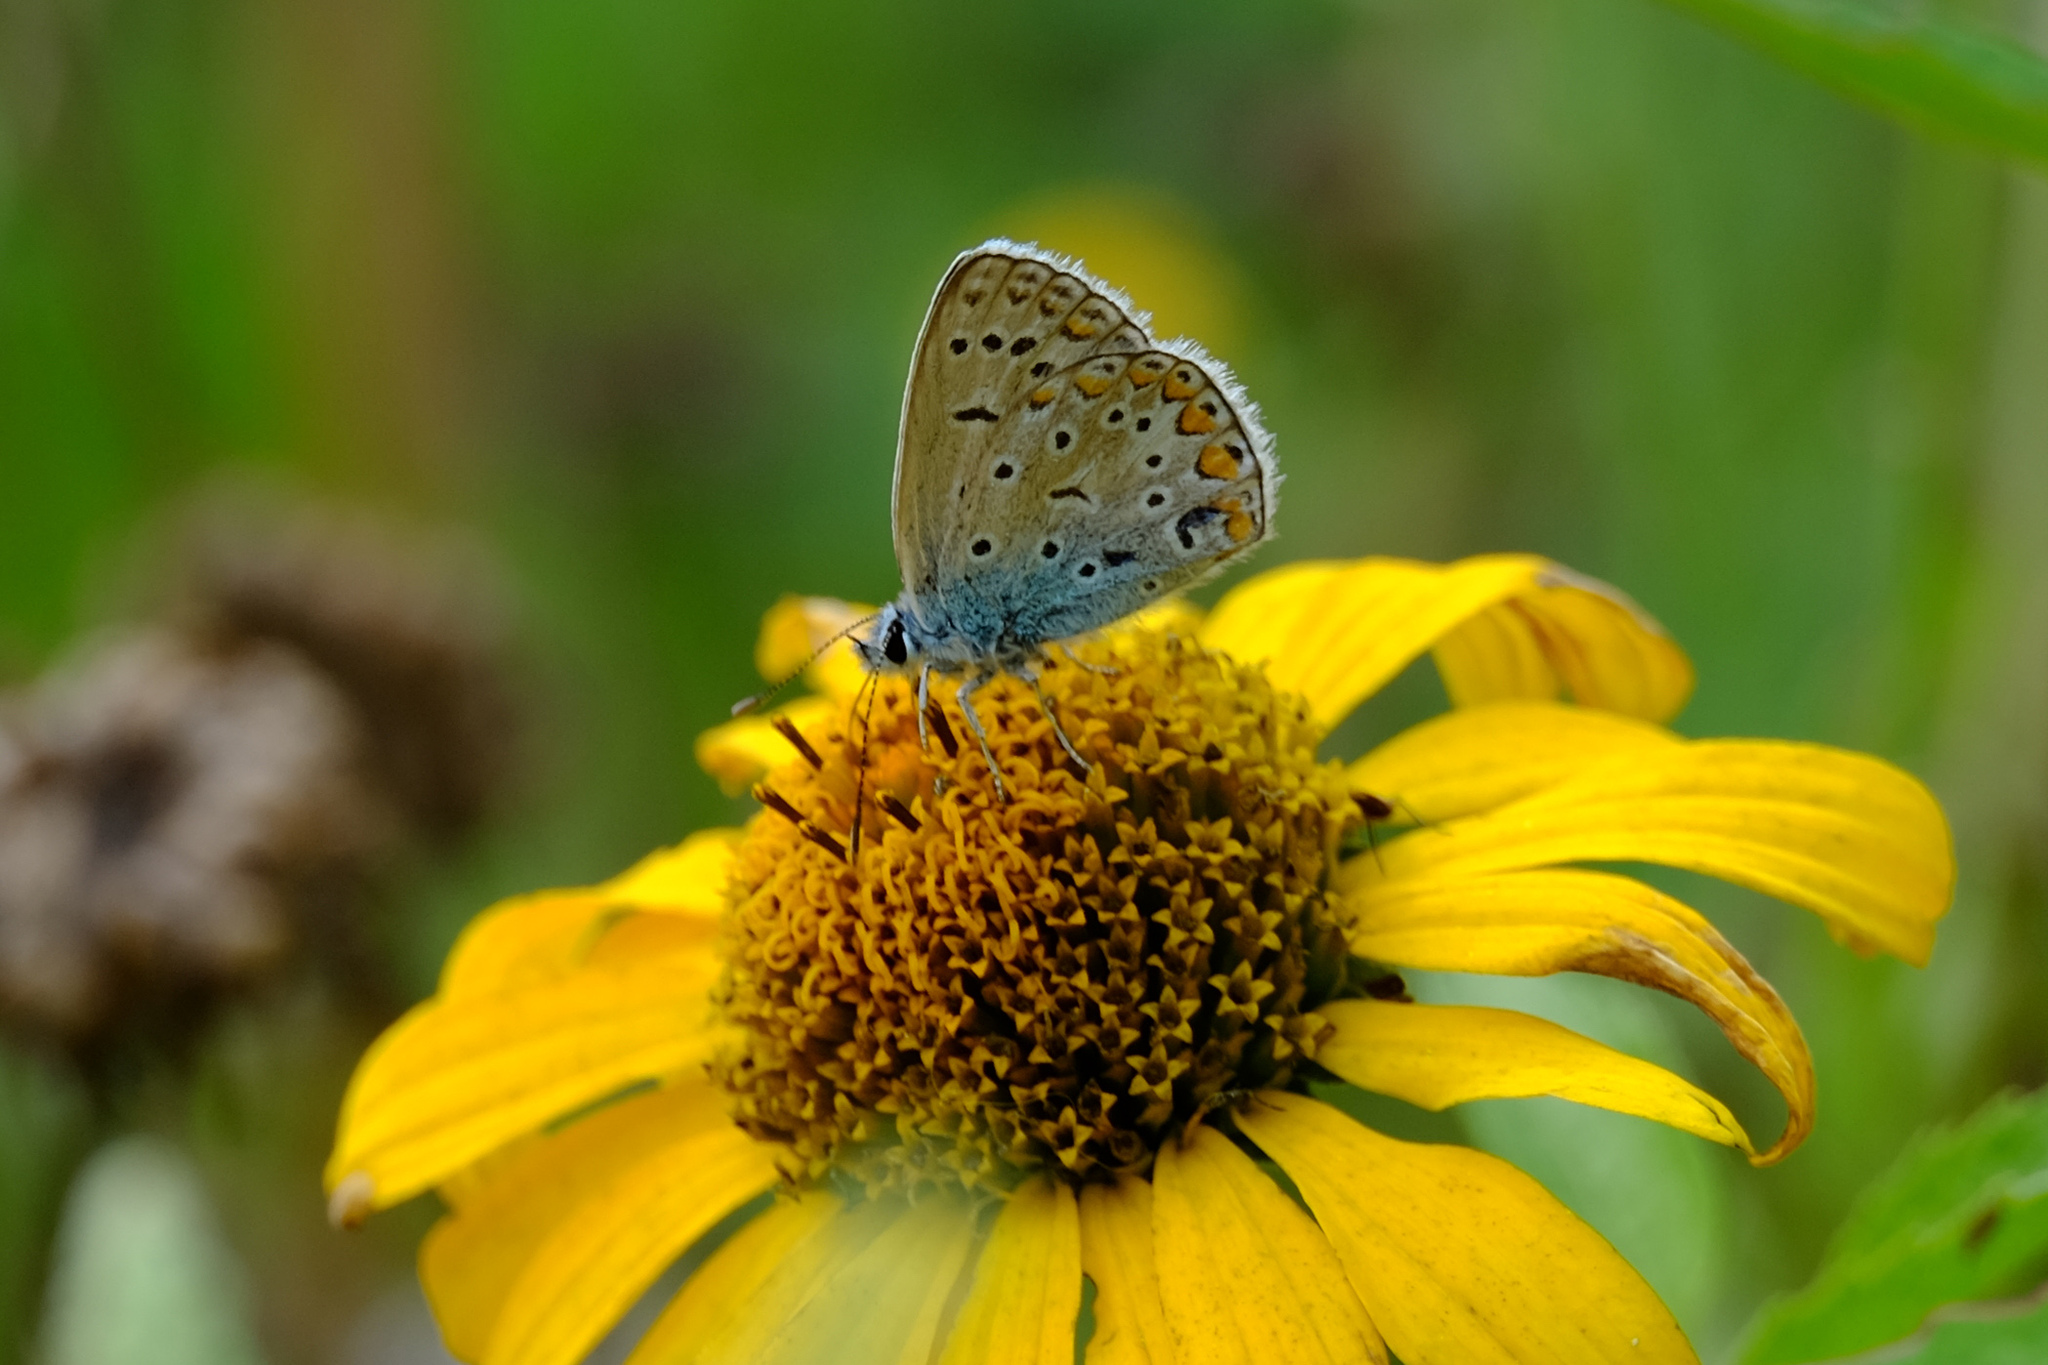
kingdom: Animalia
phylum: Arthropoda
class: Insecta
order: Lepidoptera
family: Lycaenidae
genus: Polyommatus
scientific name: Polyommatus icarus
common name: Common blue
